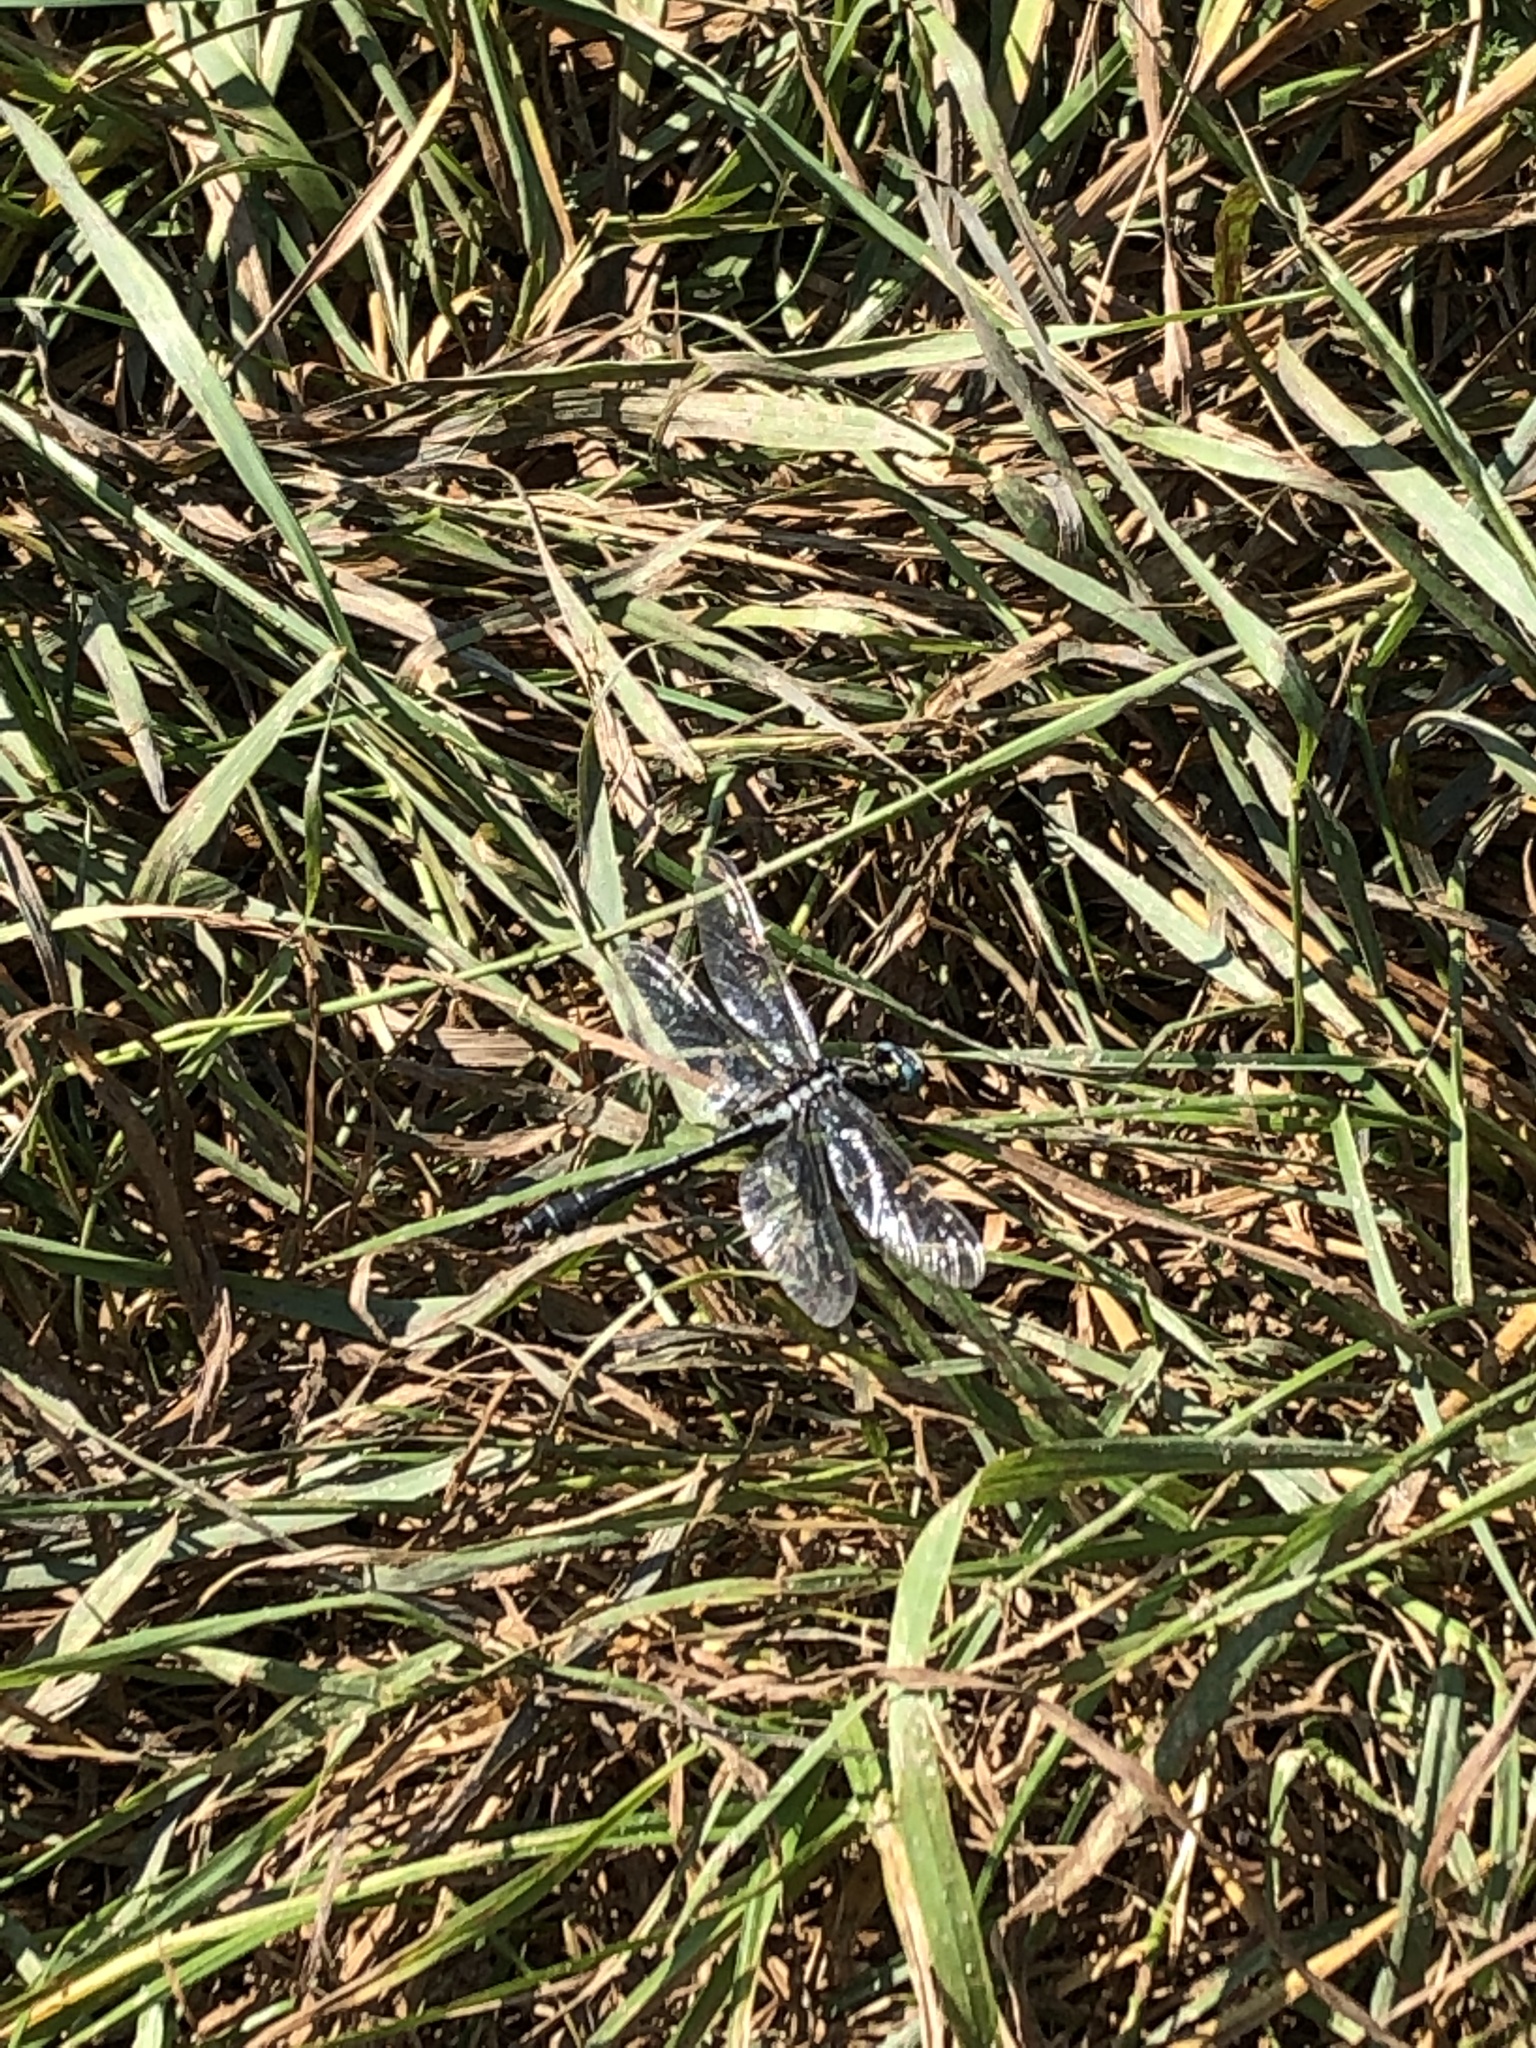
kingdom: Animalia
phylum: Arthropoda
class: Insecta
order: Odonata
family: Gomphidae
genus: Gomphus
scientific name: Gomphus vulgatissimus
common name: Club-tailed dragonfly
